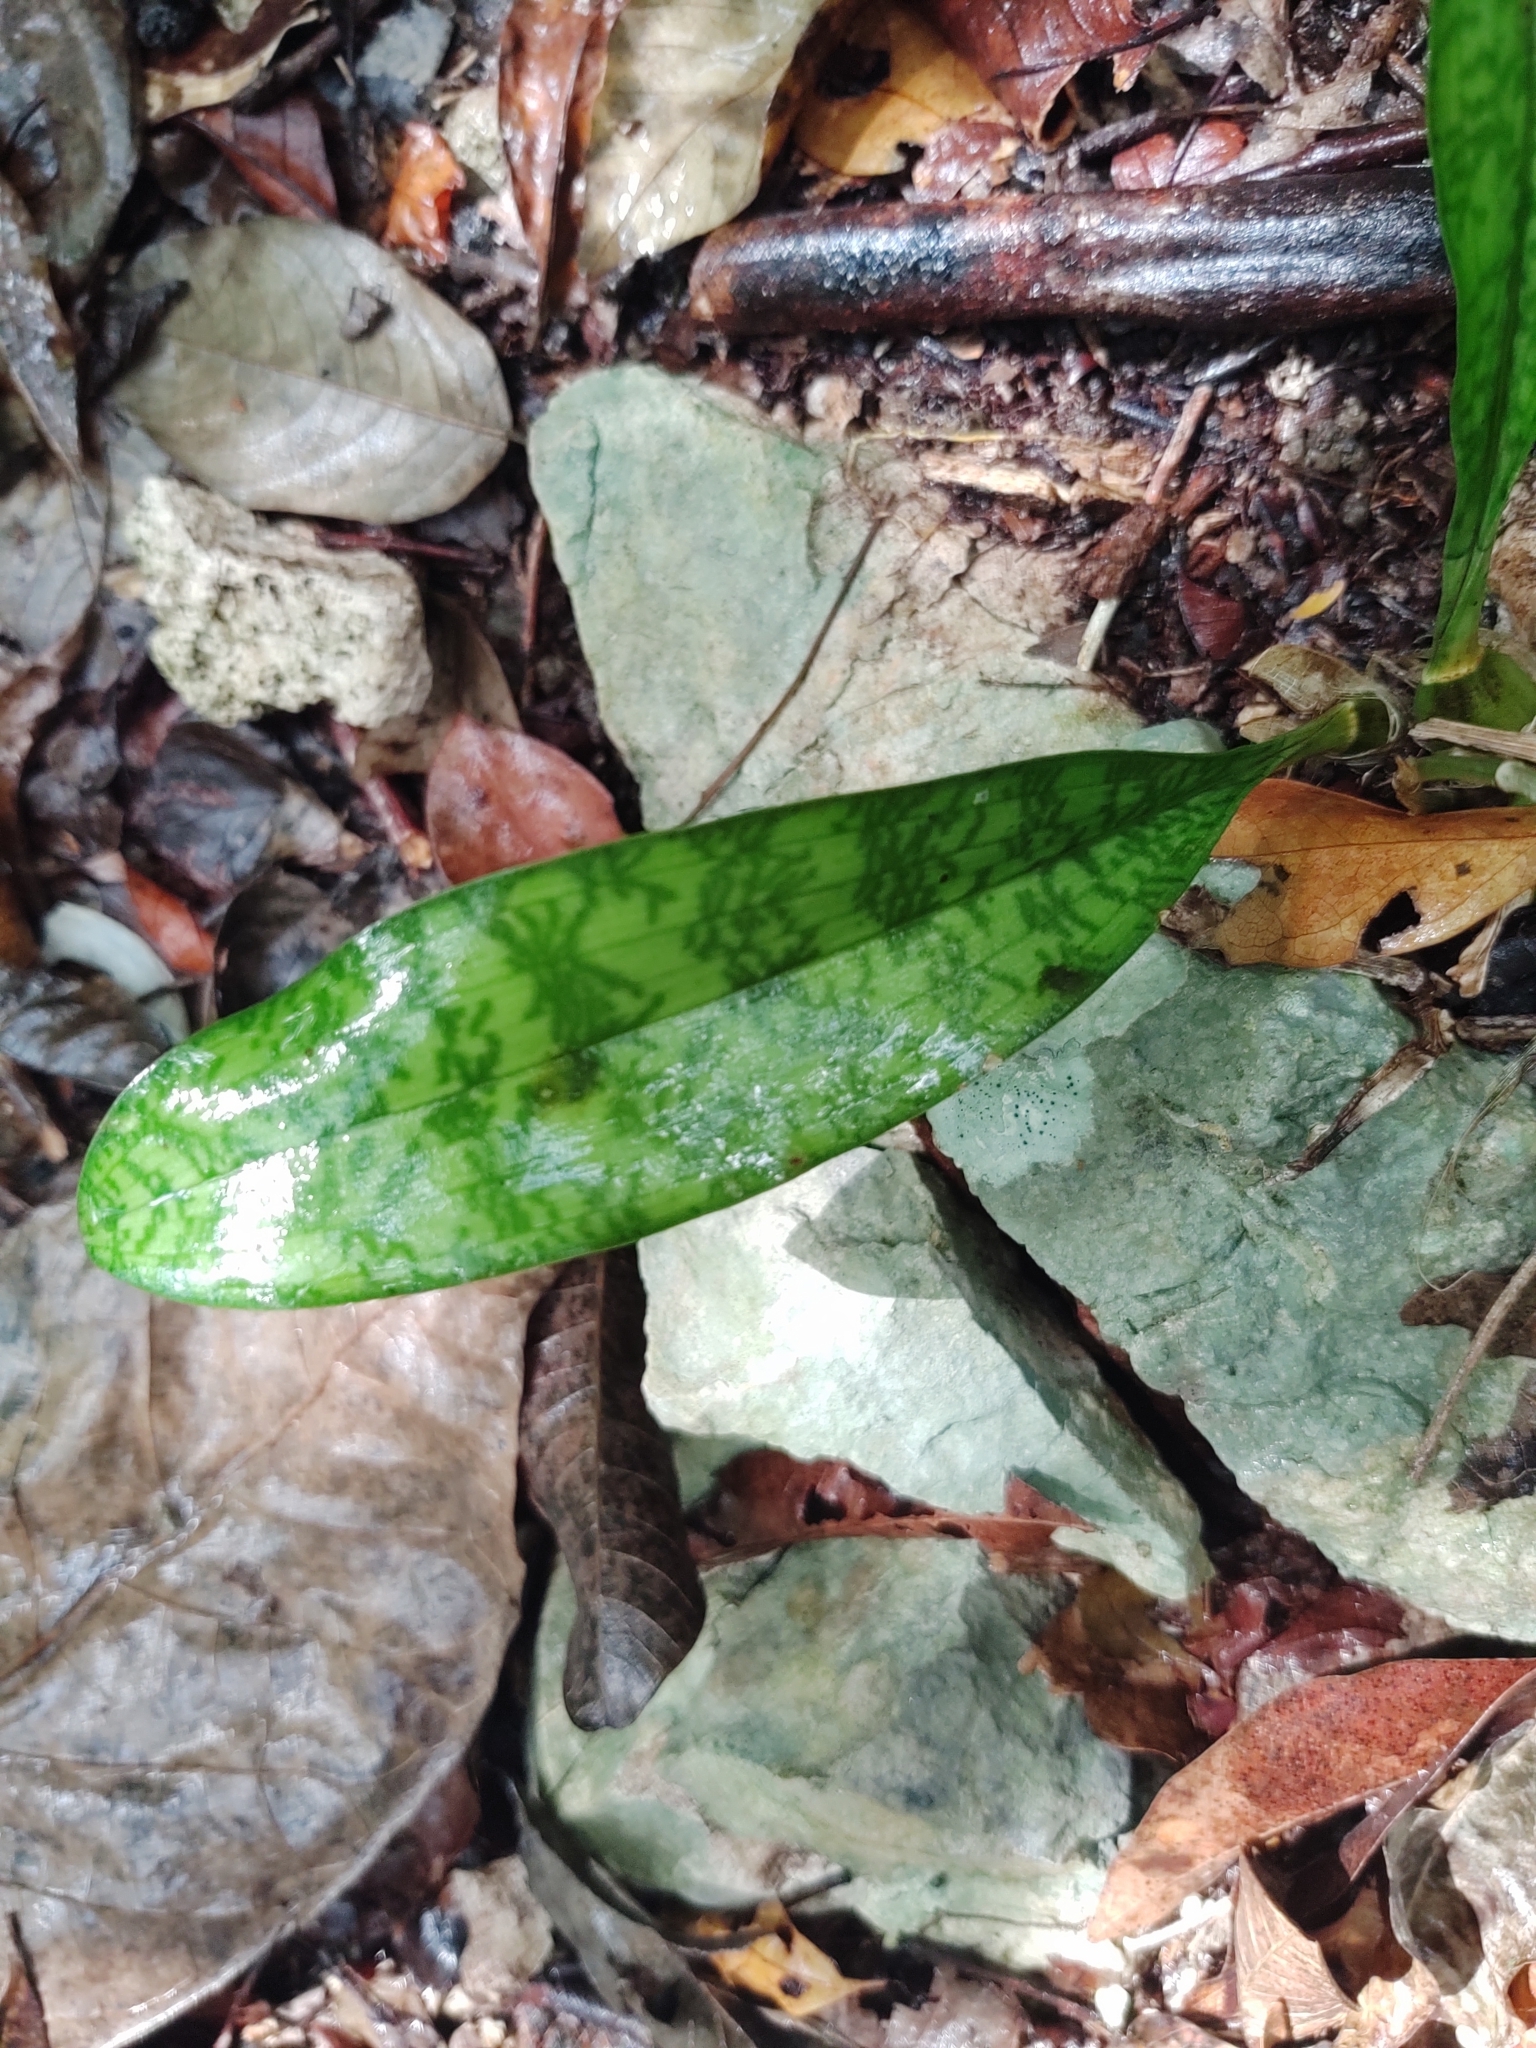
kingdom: Plantae
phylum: Tracheophyta
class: Liliopsida
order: Asparagales
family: Orchidaceae
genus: Eulophia
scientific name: Eulophia maculata
